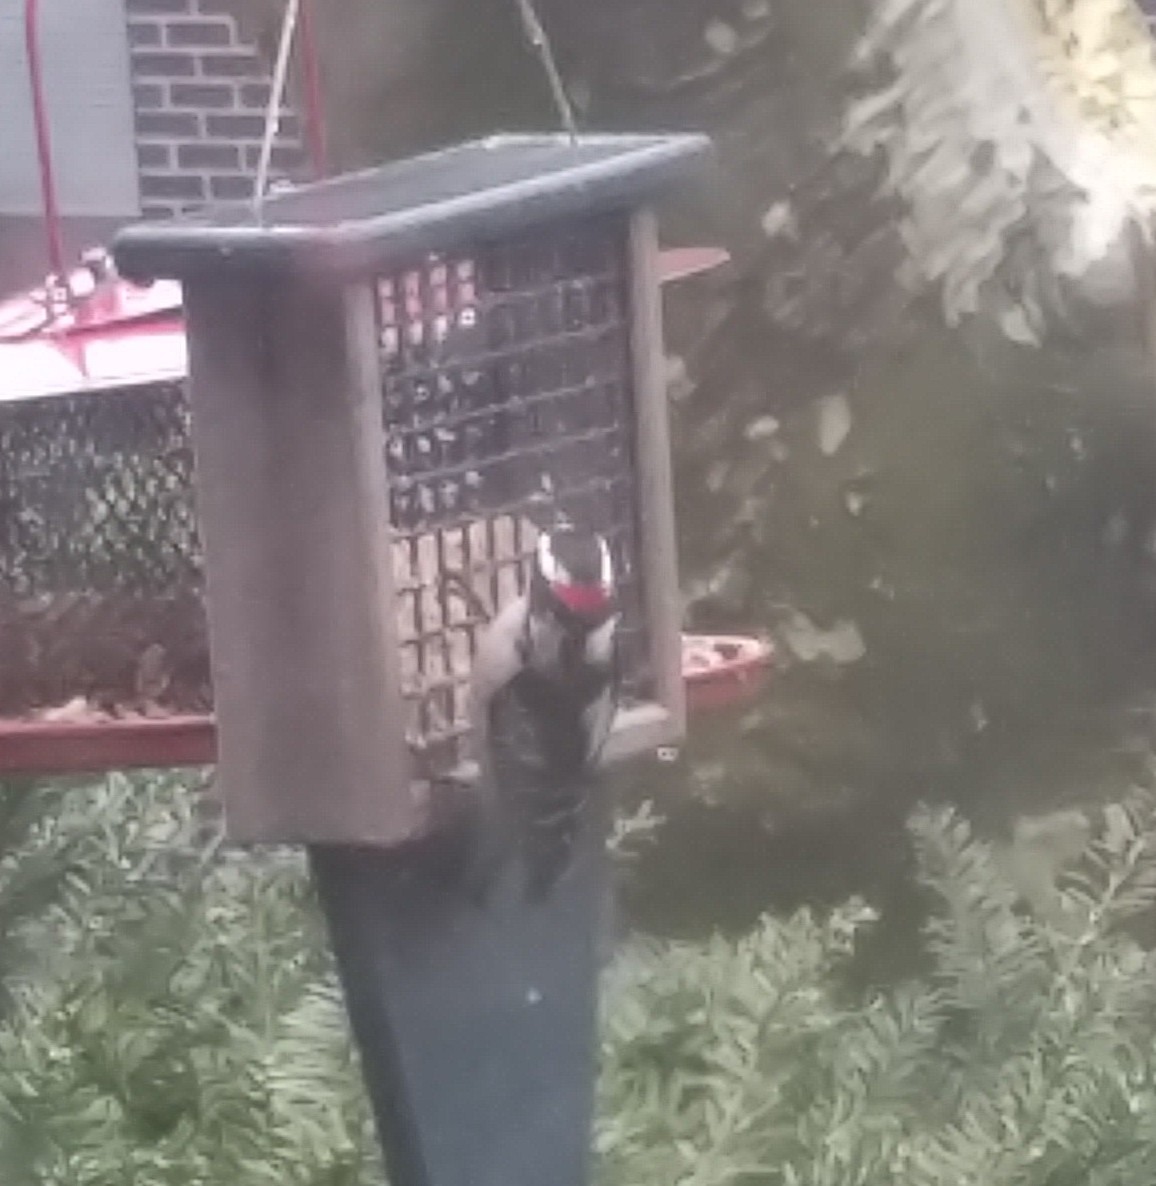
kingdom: Animalia
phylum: Chordata
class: Aves
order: Piciformes
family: Picidae
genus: Dryobates
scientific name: Dryobates pubescens
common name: Downy woodpecker
